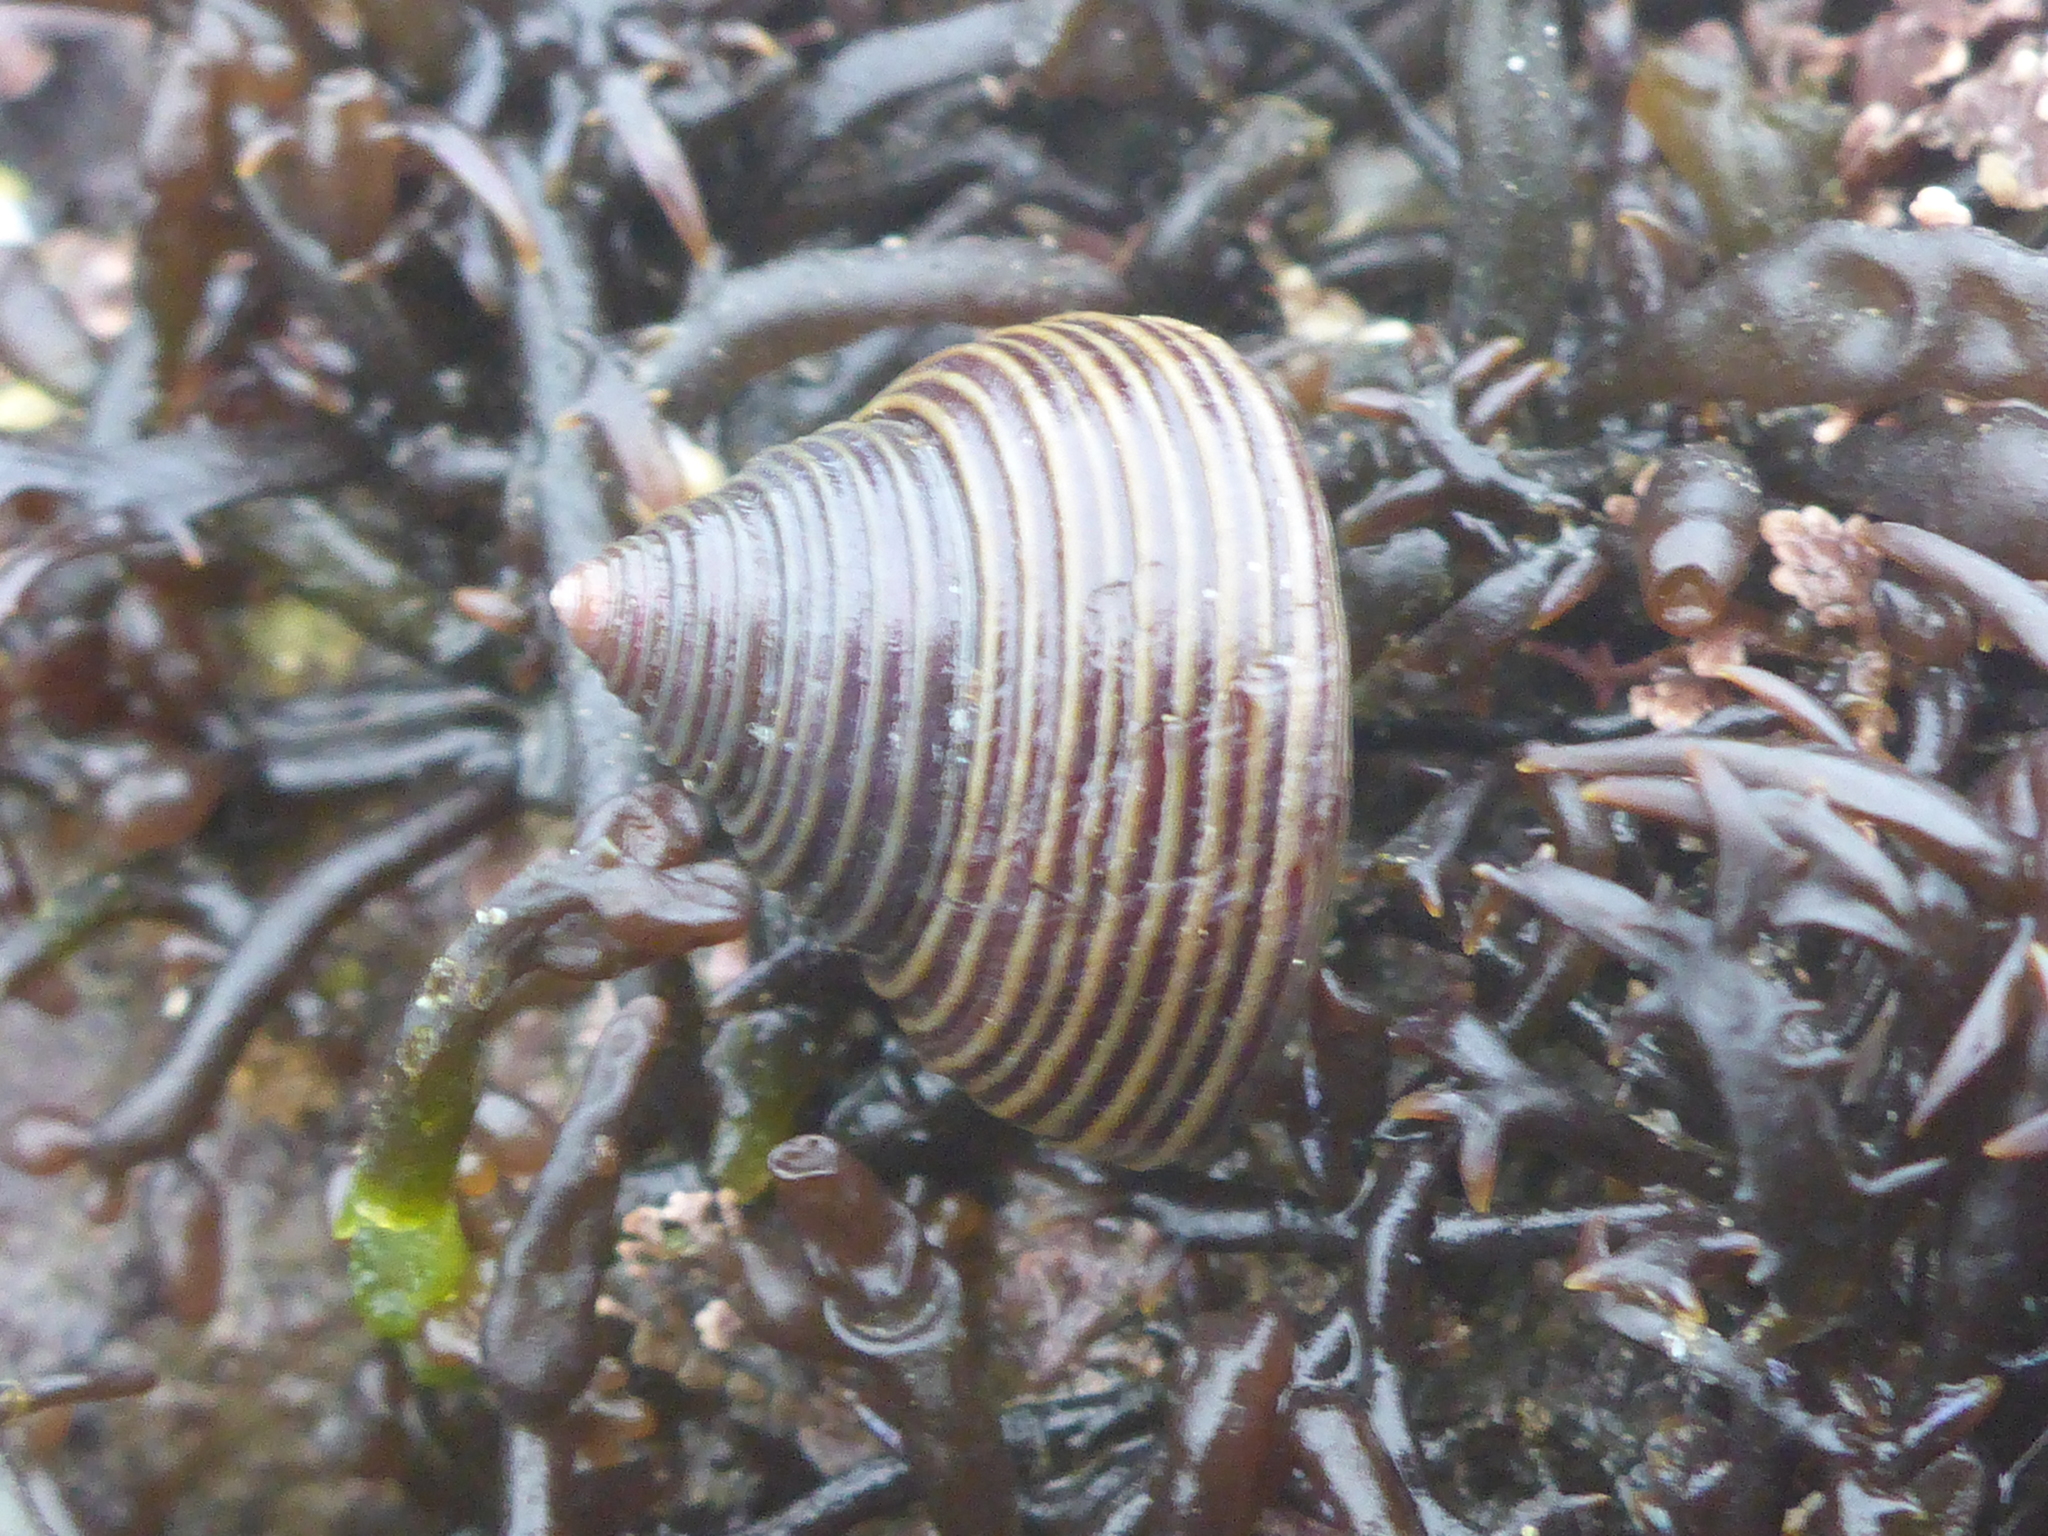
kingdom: Animalia
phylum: Mollusca
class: Gastropoda
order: Trochida
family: Calliostomatidae
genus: Calliostoma
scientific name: Calliostoma ligatum
